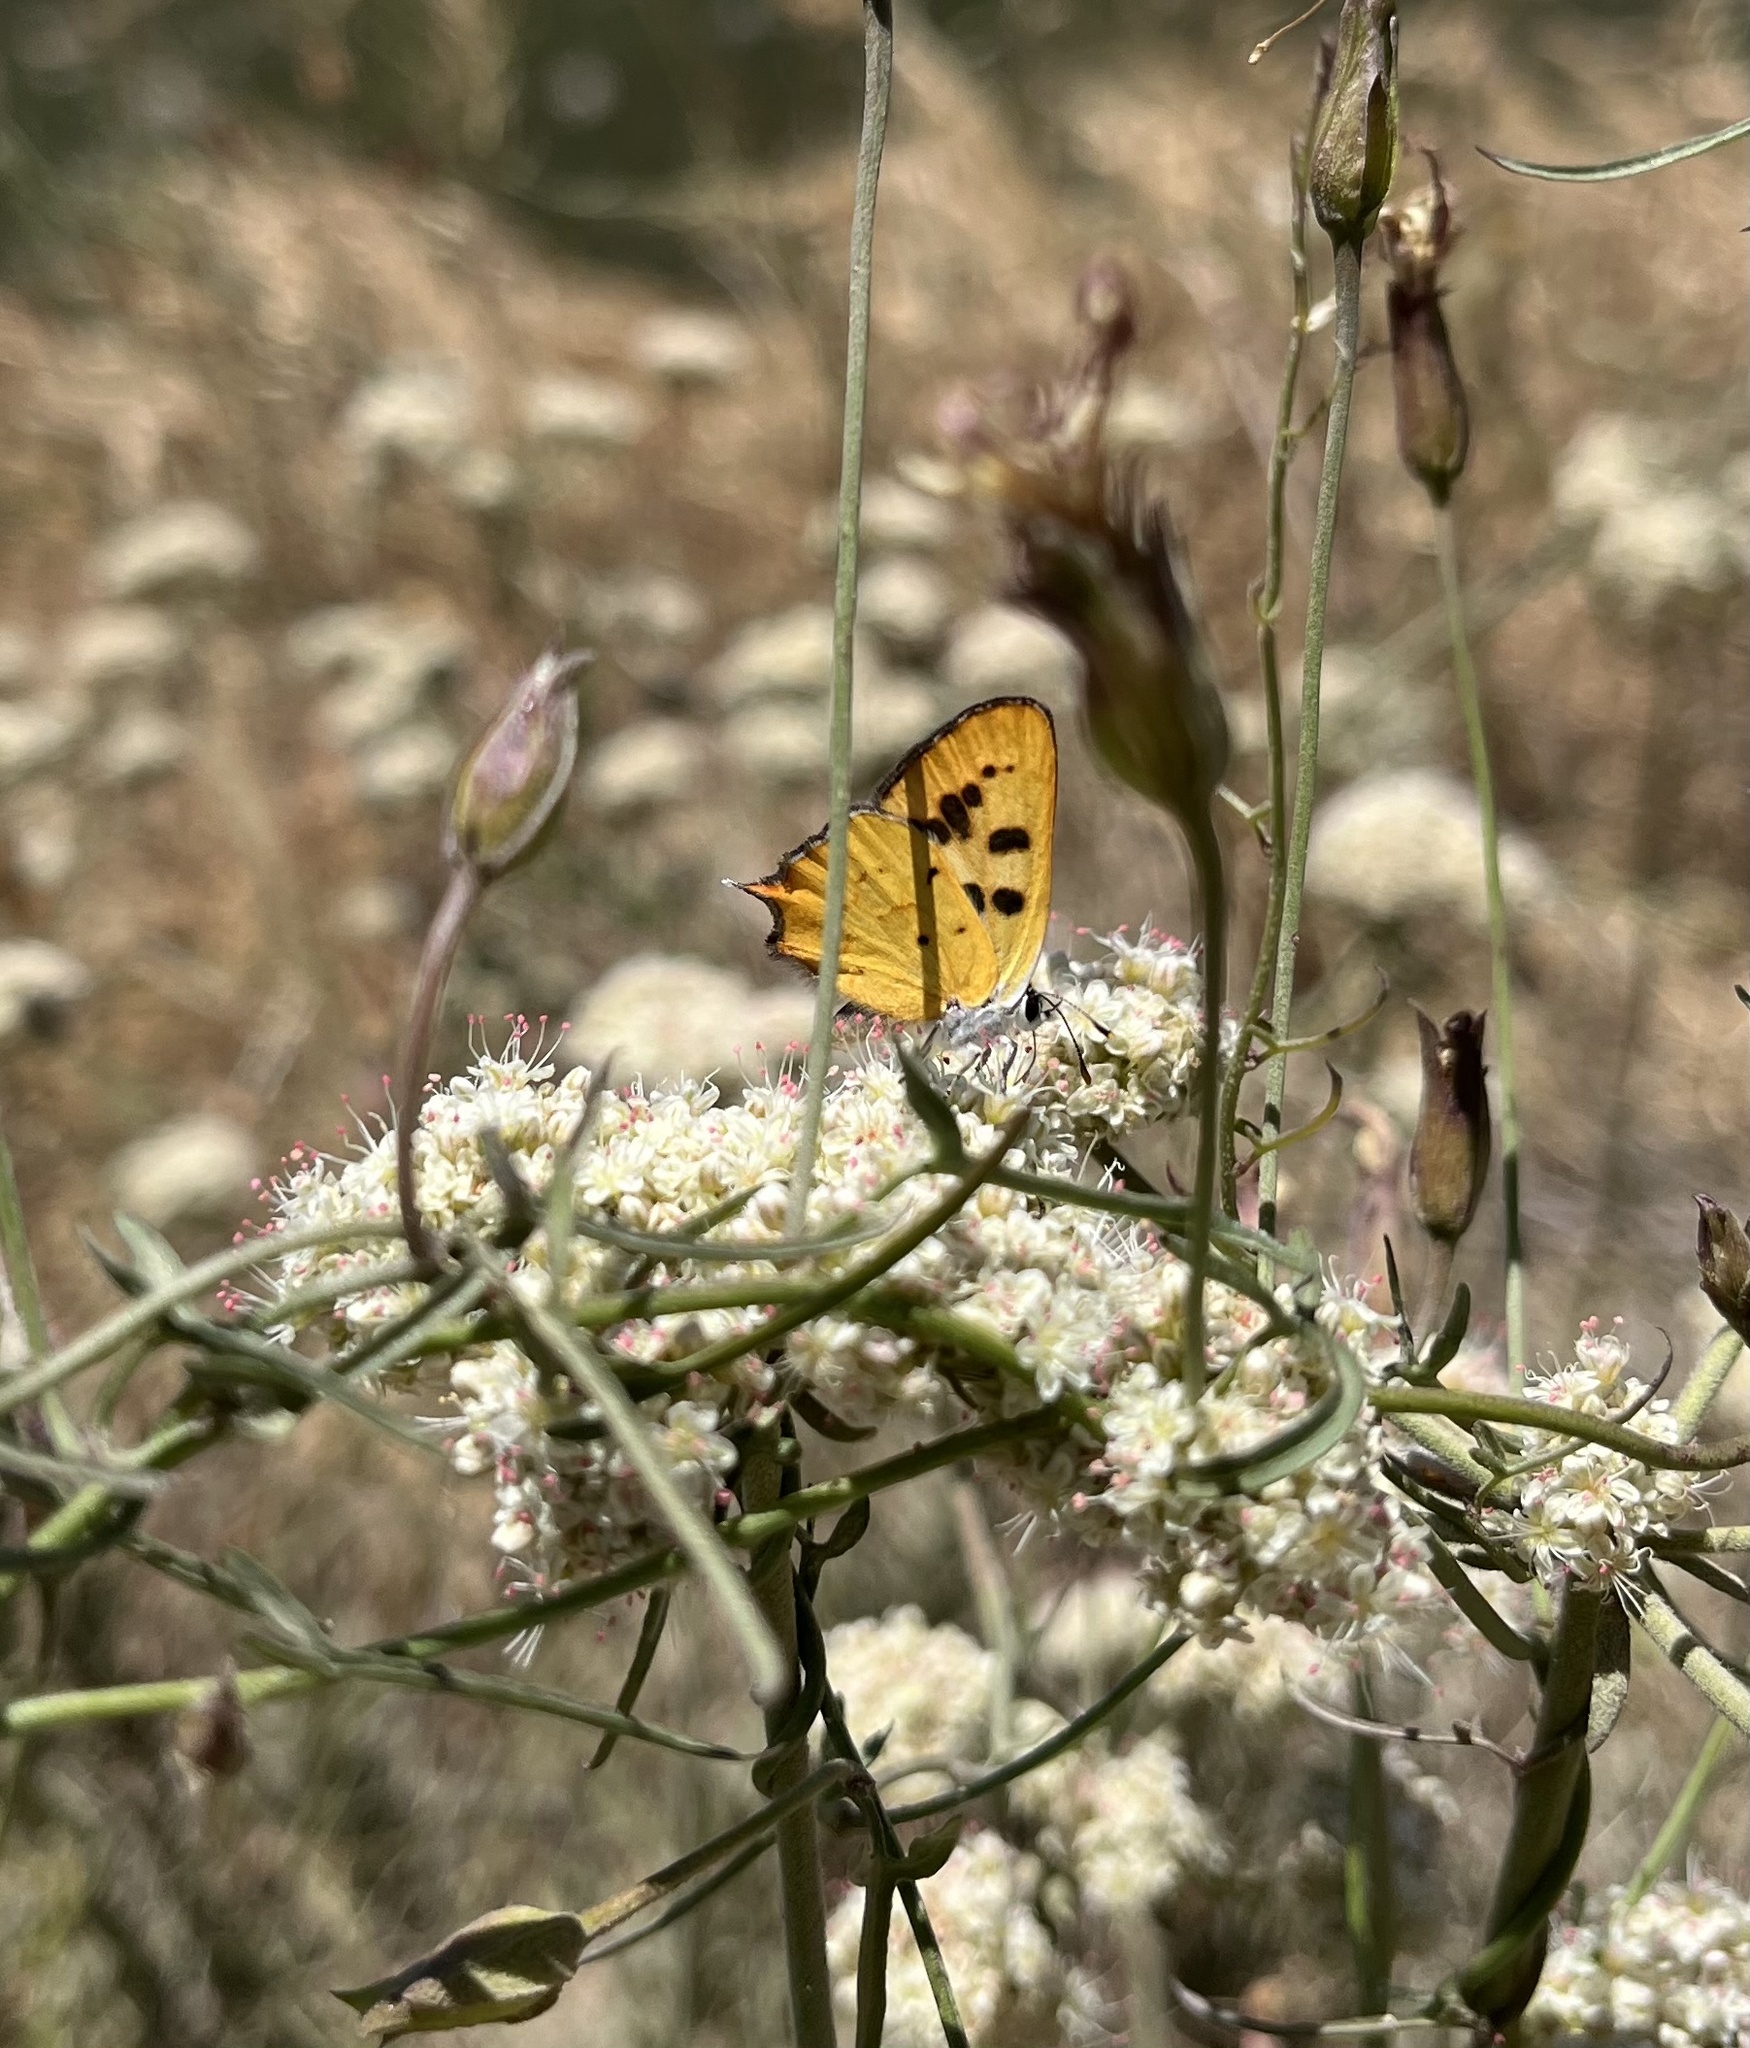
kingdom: Animalia
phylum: Arthropoda
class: Insecta
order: Lepidoptera
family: Lycaenidae
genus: Tharsalea
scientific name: Tharsalea
